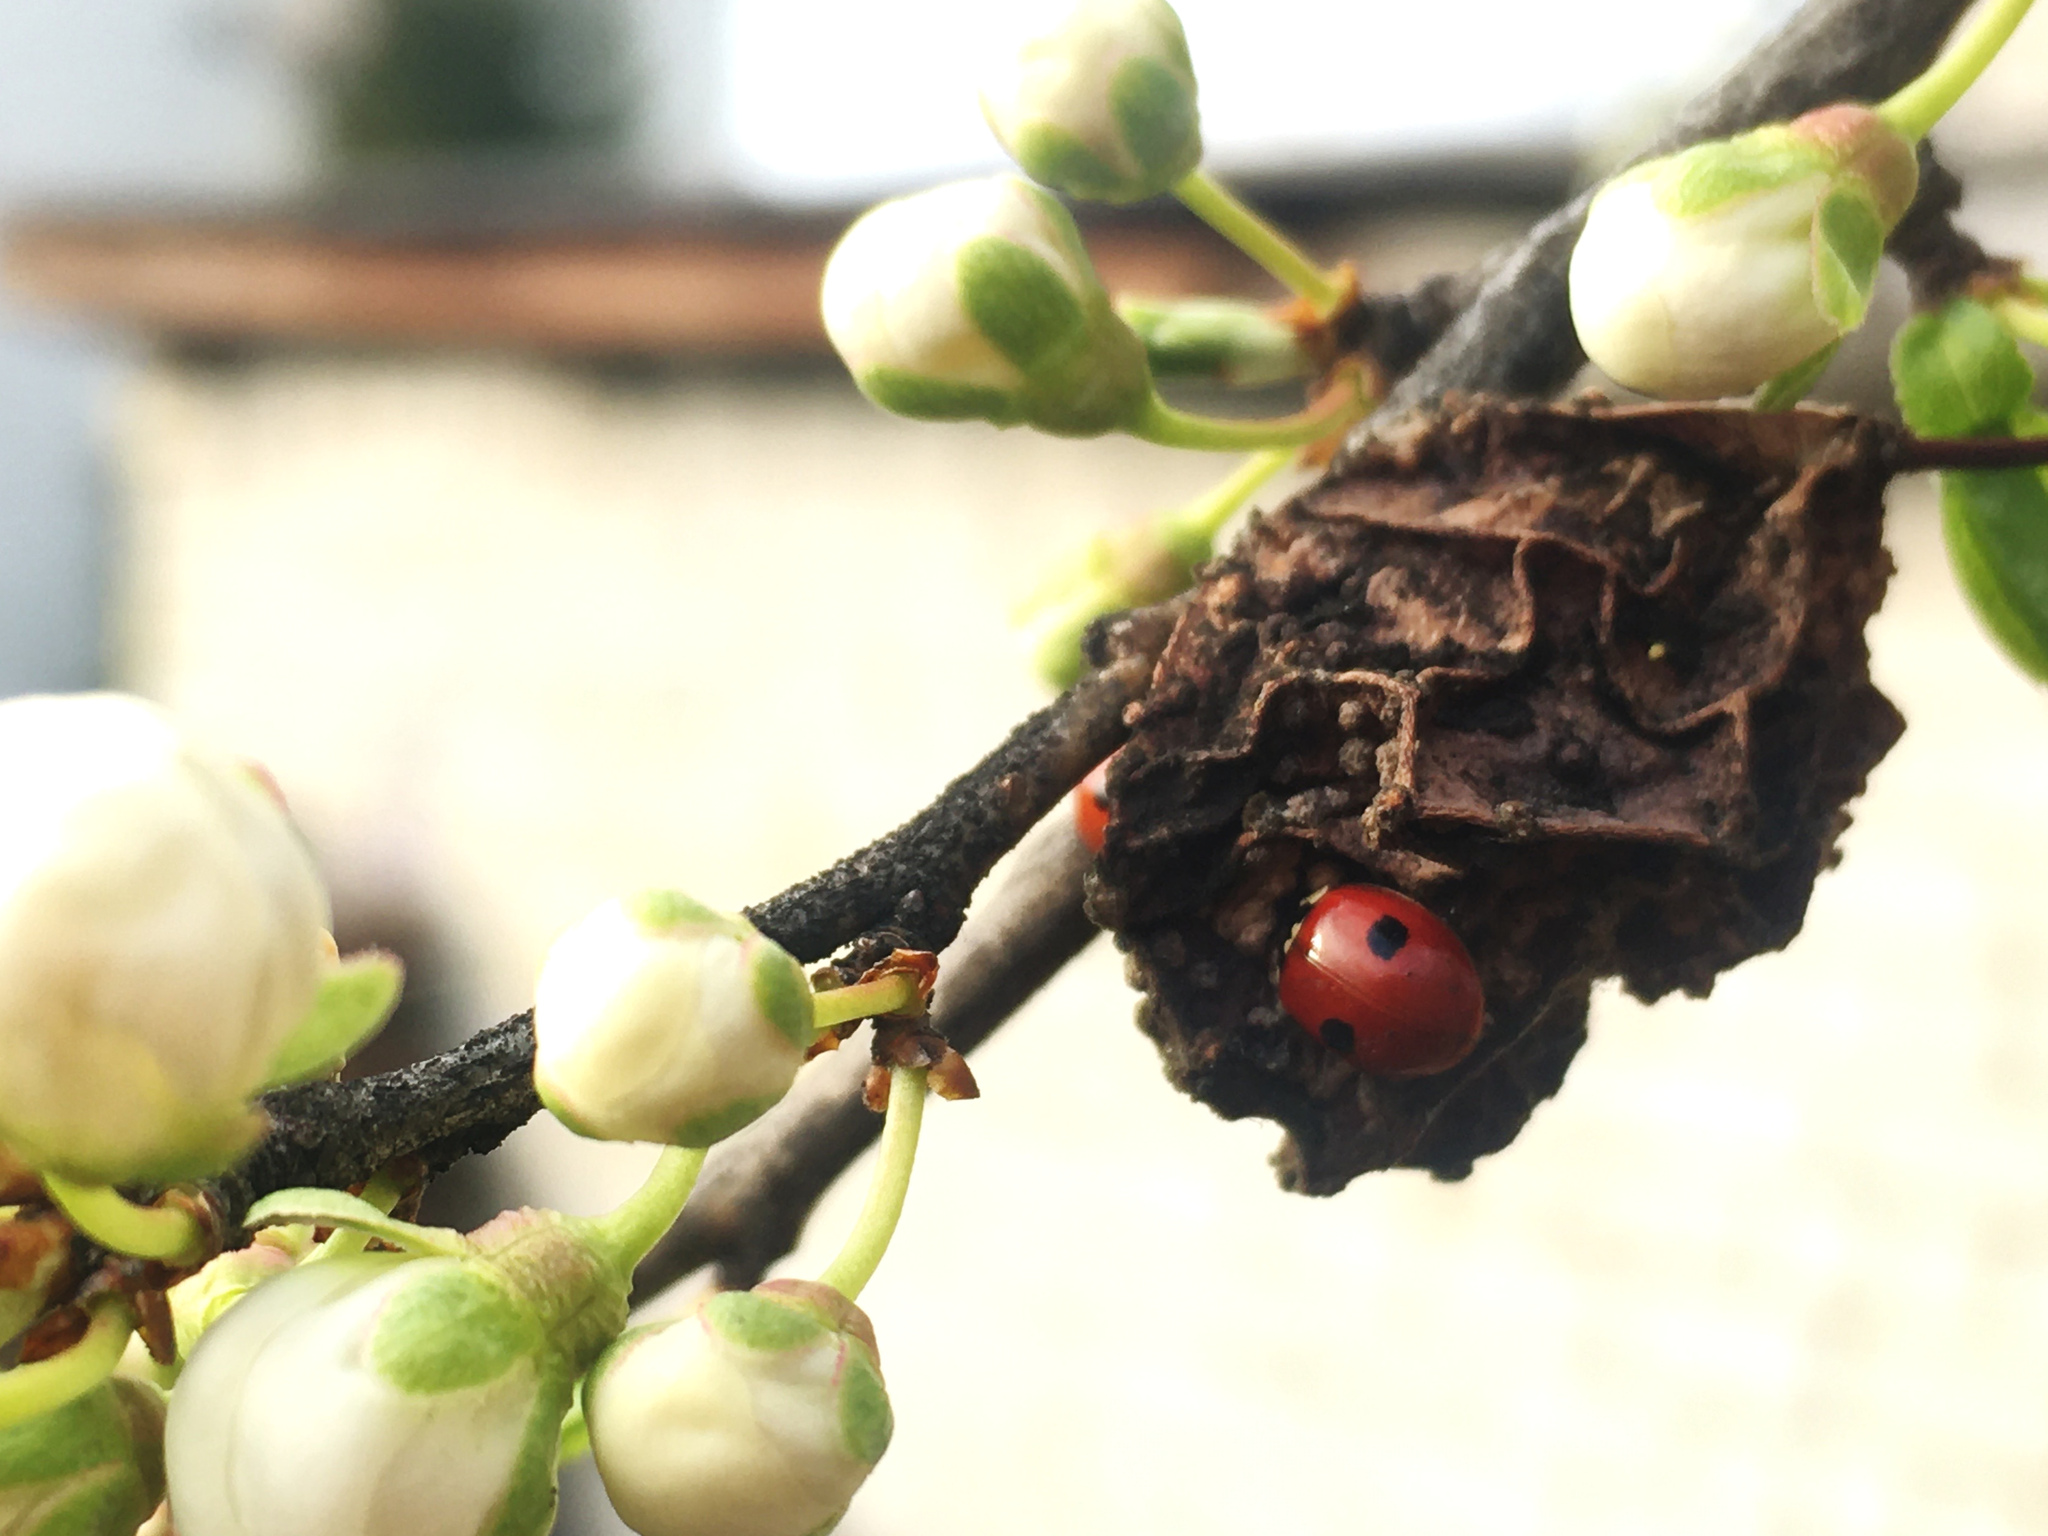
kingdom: Animalia
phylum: Arthropoda
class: Insecta
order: Coleoptera
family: Coccinellidae
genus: Adalia
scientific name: Adalia bipunctata
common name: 2-spot ladybird
